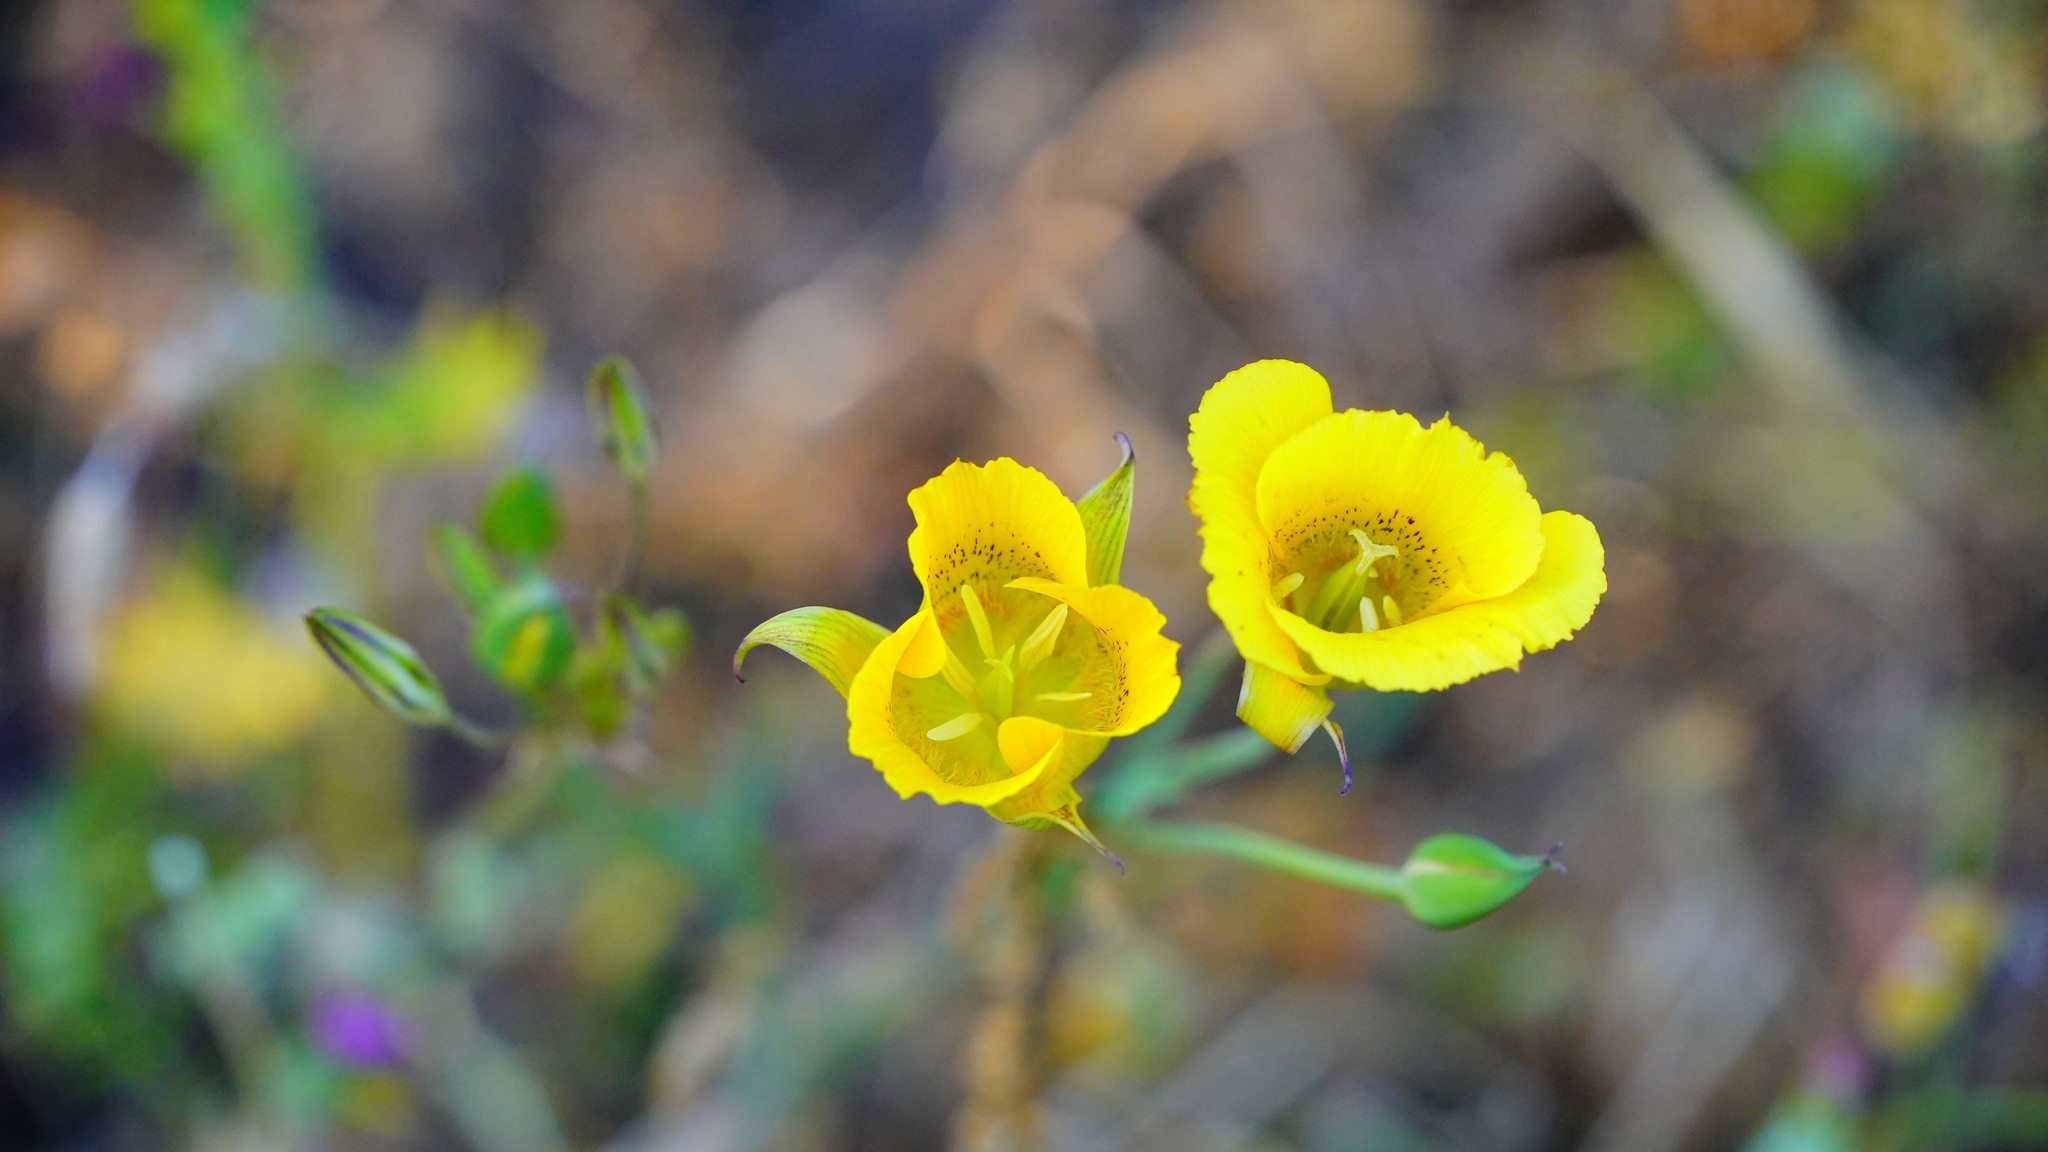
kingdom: Plantae
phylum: Tracheophyta
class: Liliopsida
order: Liliales
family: Liliaceae
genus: Calochortus
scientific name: Calochortus luteus
